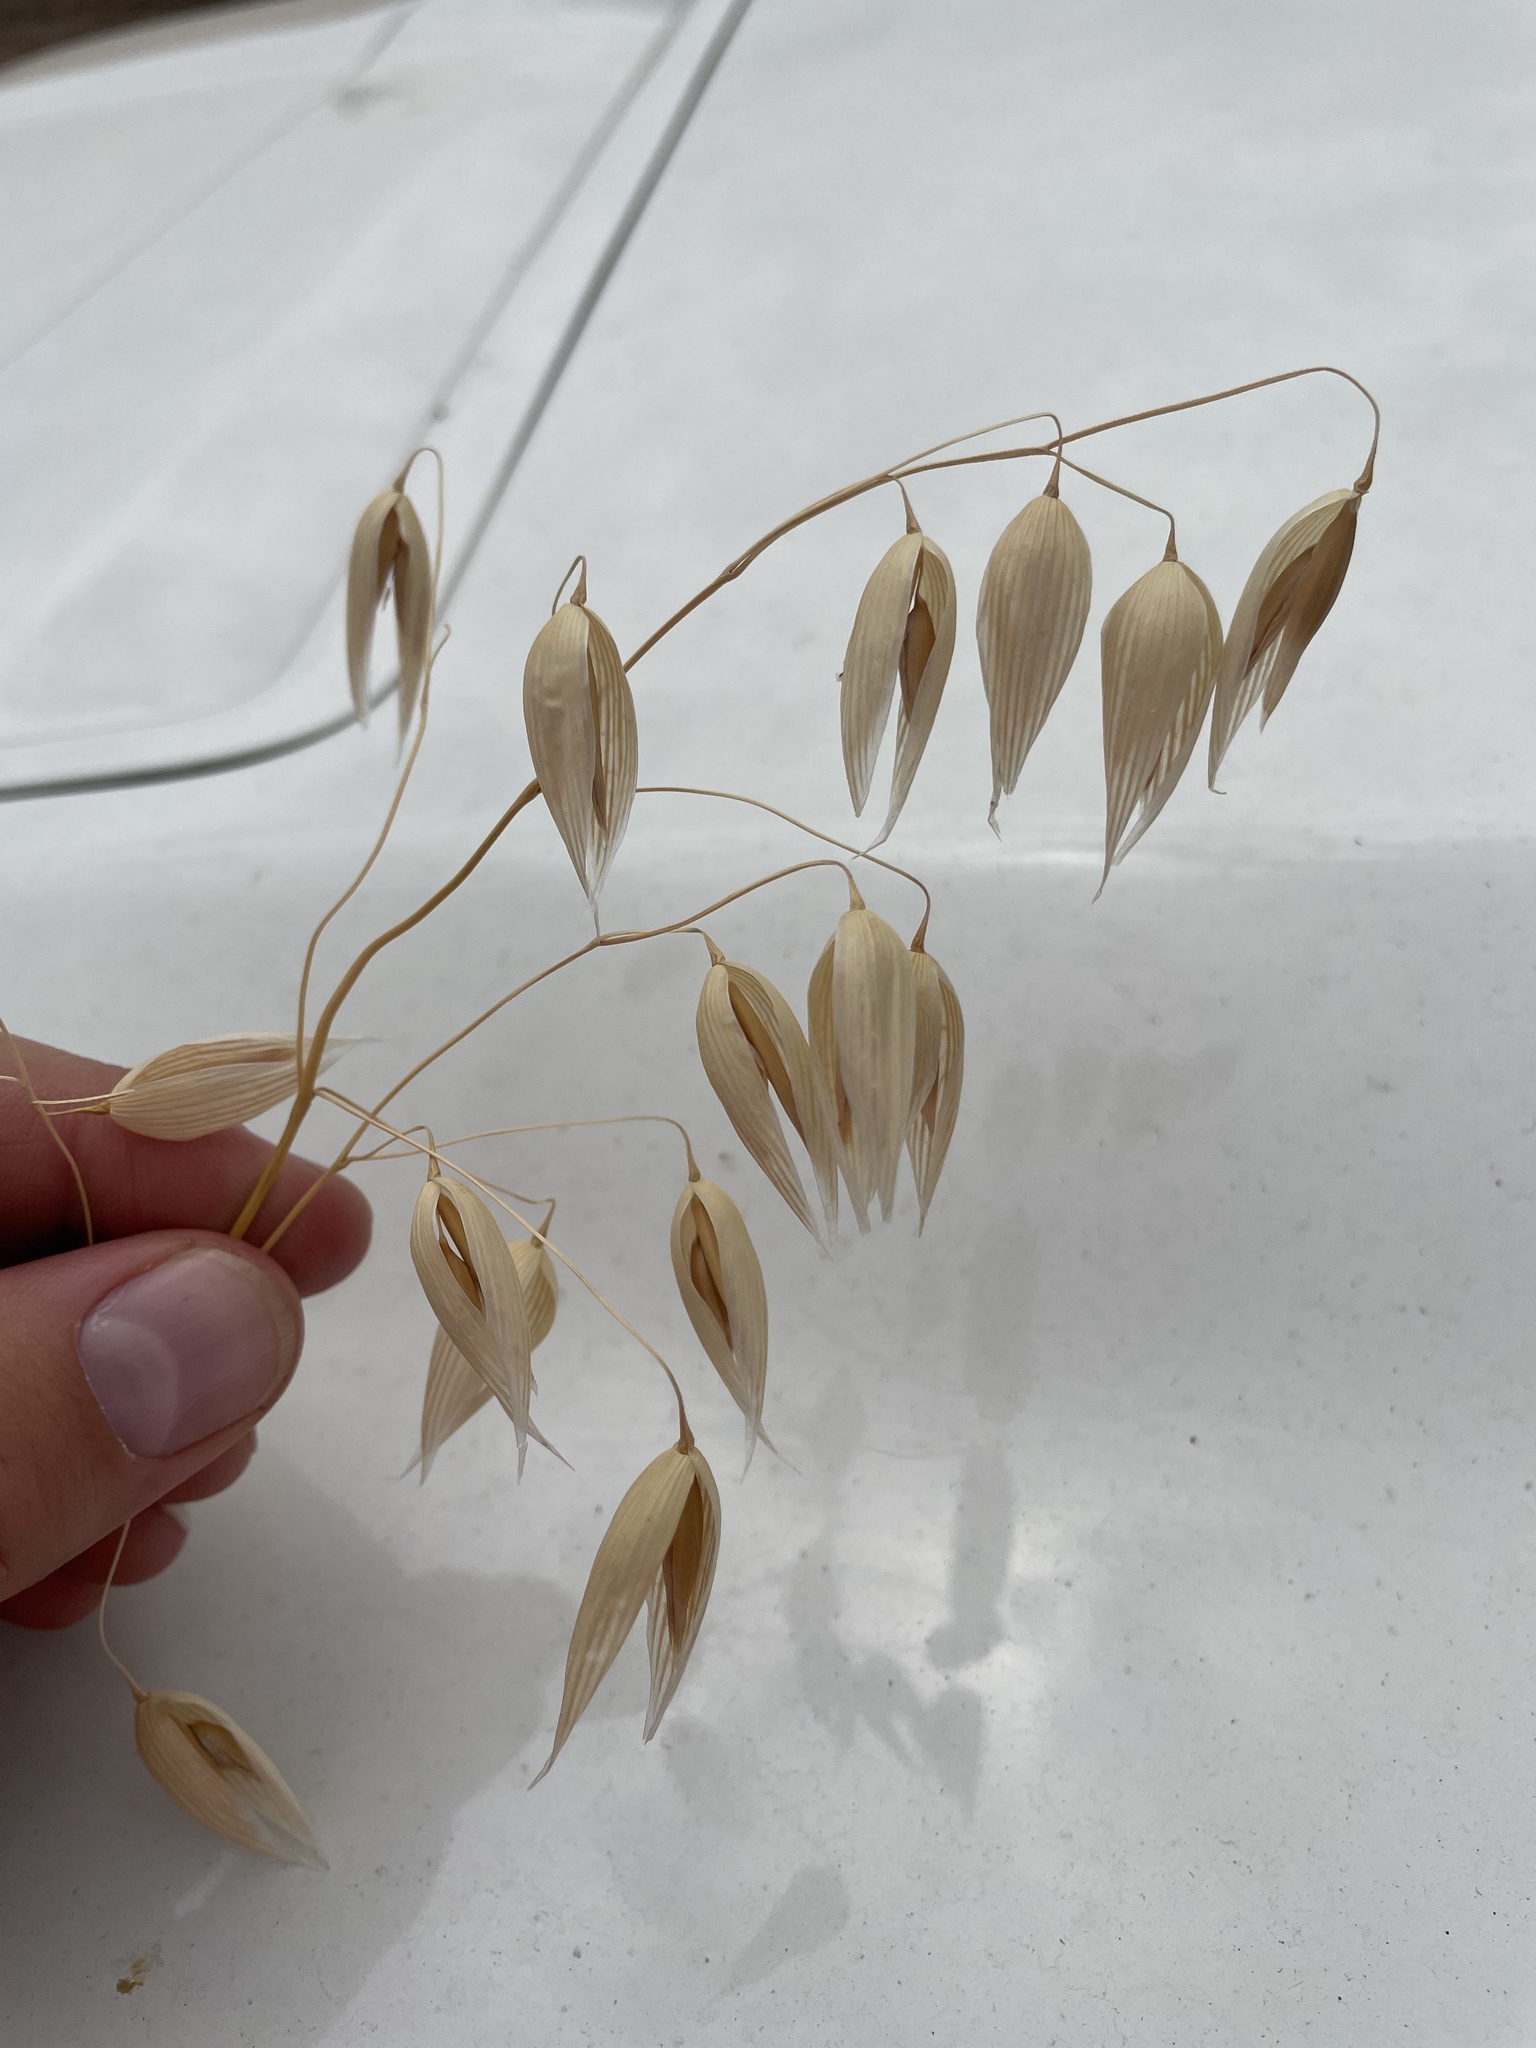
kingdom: Plantae
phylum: Tracheophyta
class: Liliopsida
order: Poales
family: Poaceae
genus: Avena
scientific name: Avena sativa
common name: Oat
